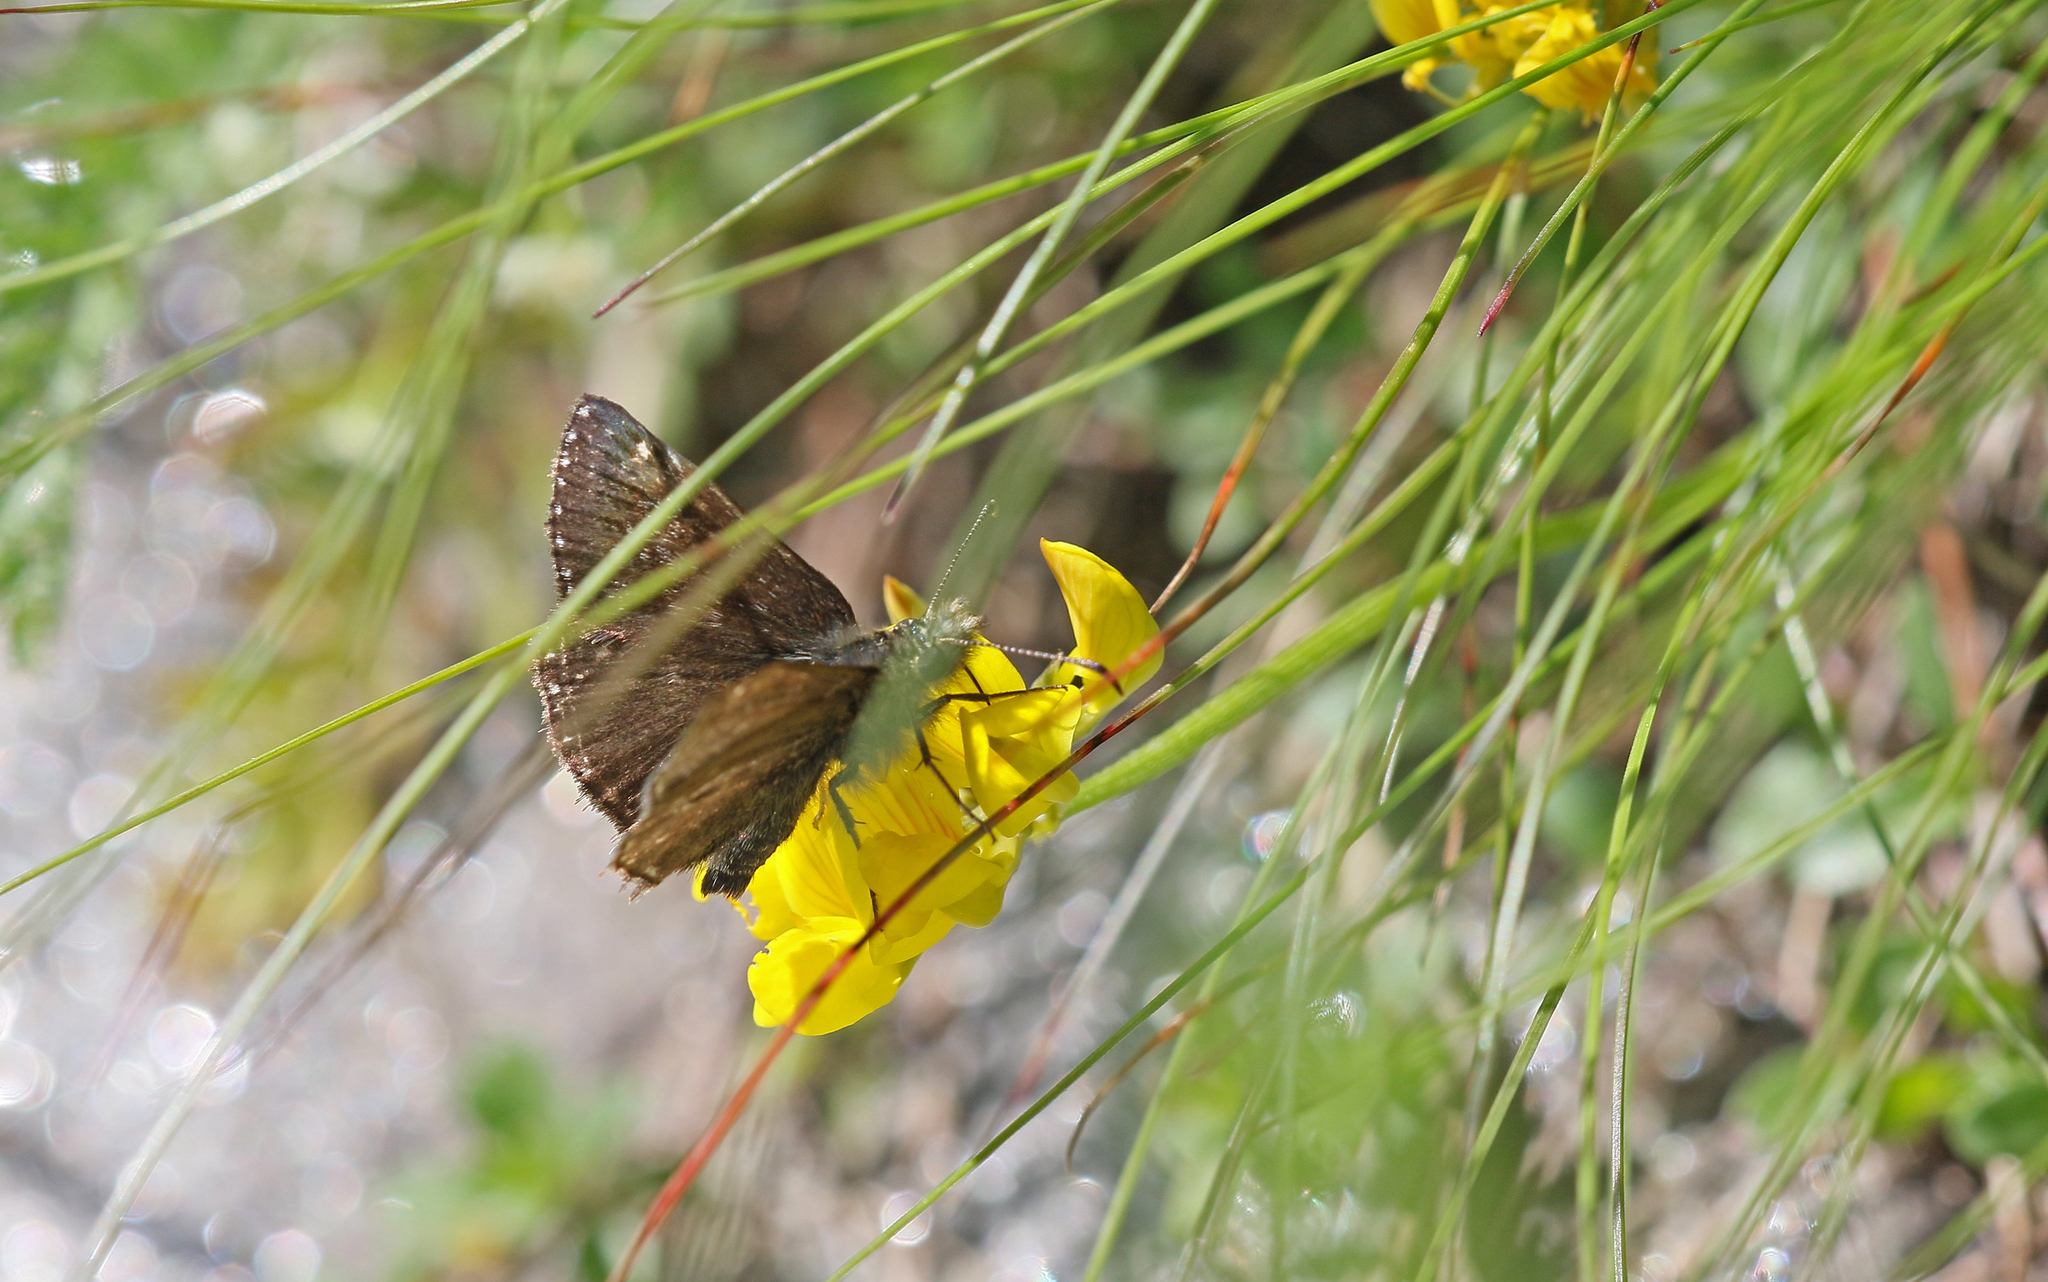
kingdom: Animalia
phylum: Arthropoda
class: Insecta
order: Lepidoptera
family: Hesperiidae
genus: Erynnis
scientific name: Erynnis tages
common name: Dingy skipper
